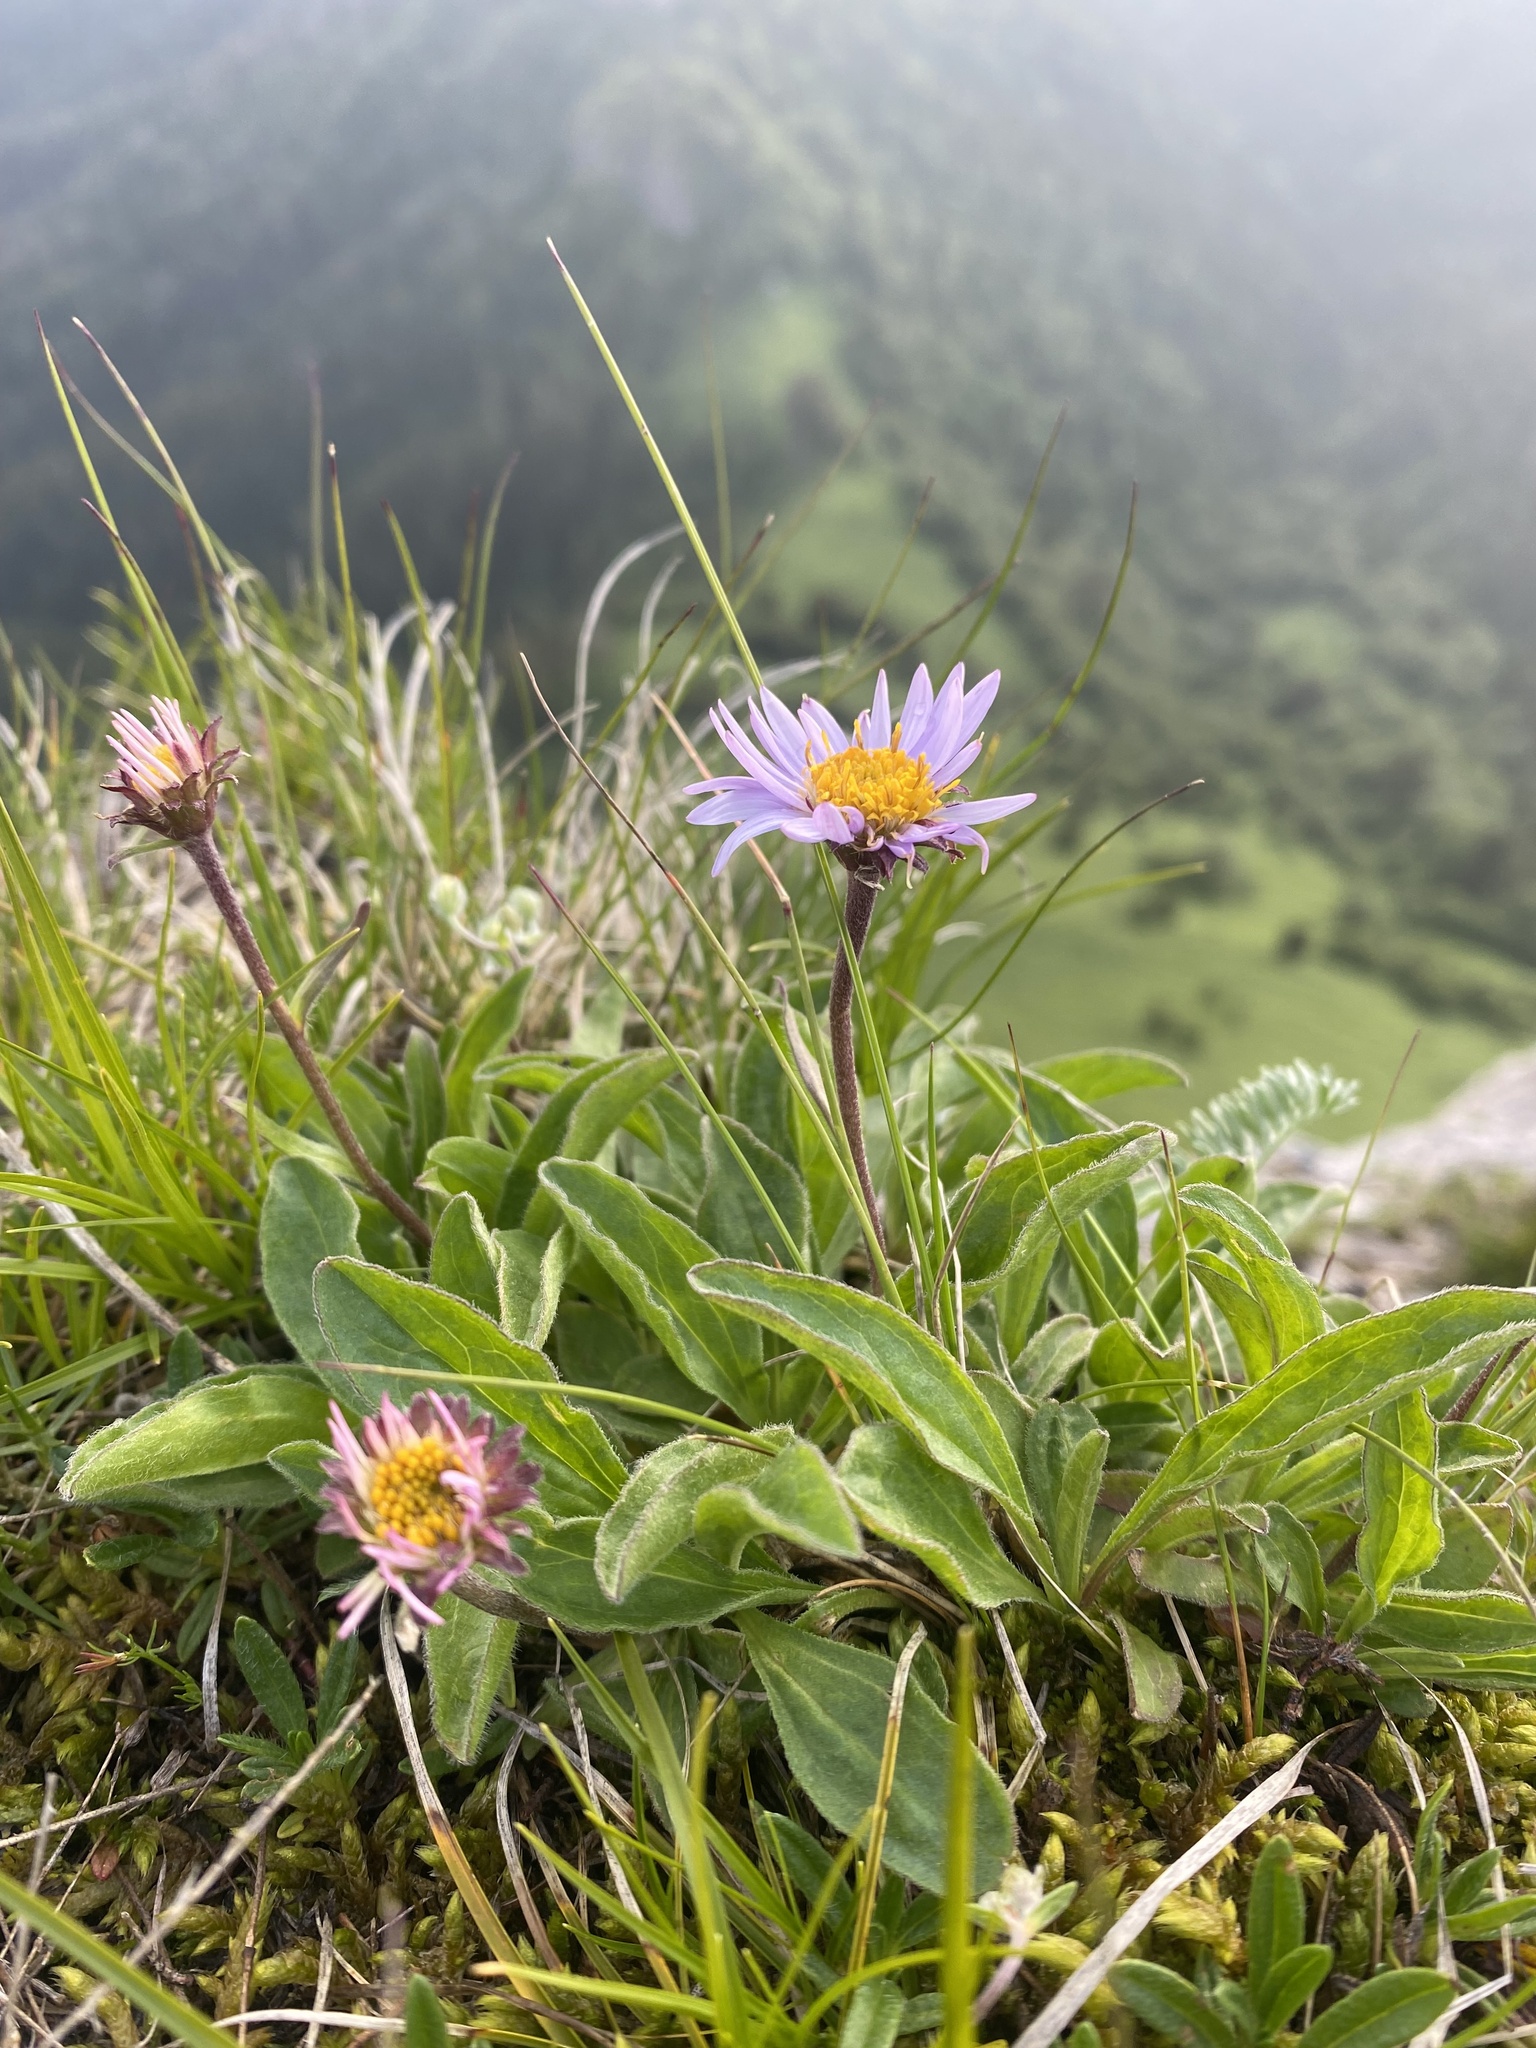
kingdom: Plantae
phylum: Tracheophyta
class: Magnoliopsida
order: Asterales
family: Asteraceae
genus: Aster
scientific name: Aster alpinus
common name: Alpine aster
